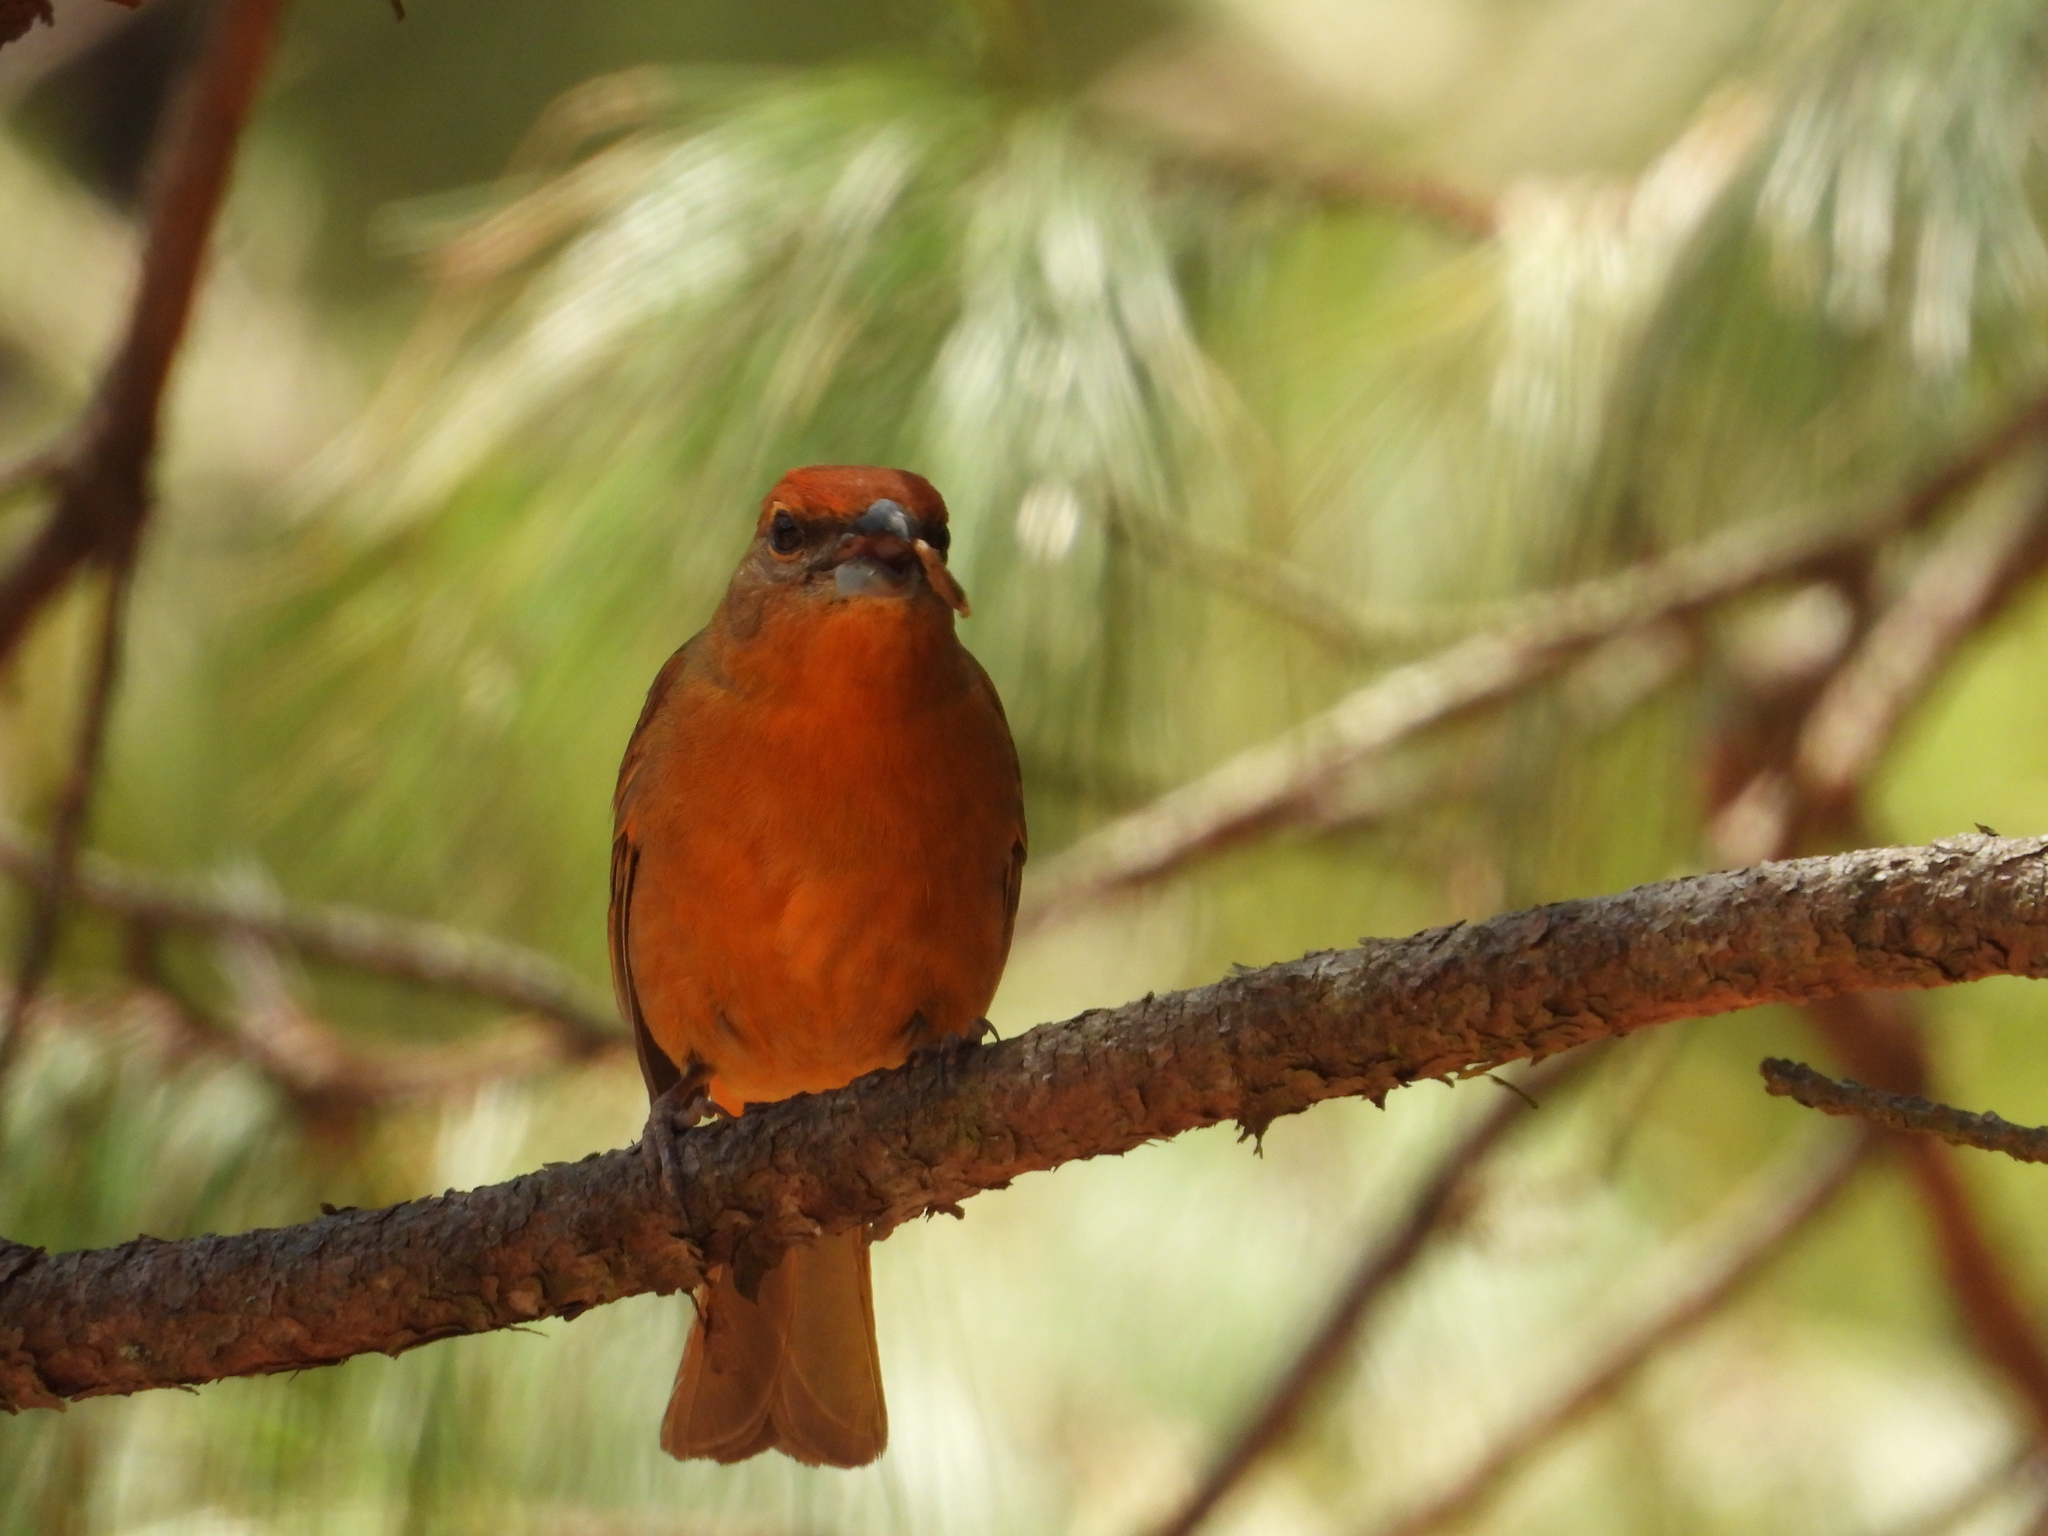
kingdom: Animalia
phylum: Chordata
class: Aves
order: Passeriformes
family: Cardinalidae
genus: Piranga
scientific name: Piranga flava
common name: Red tanager
